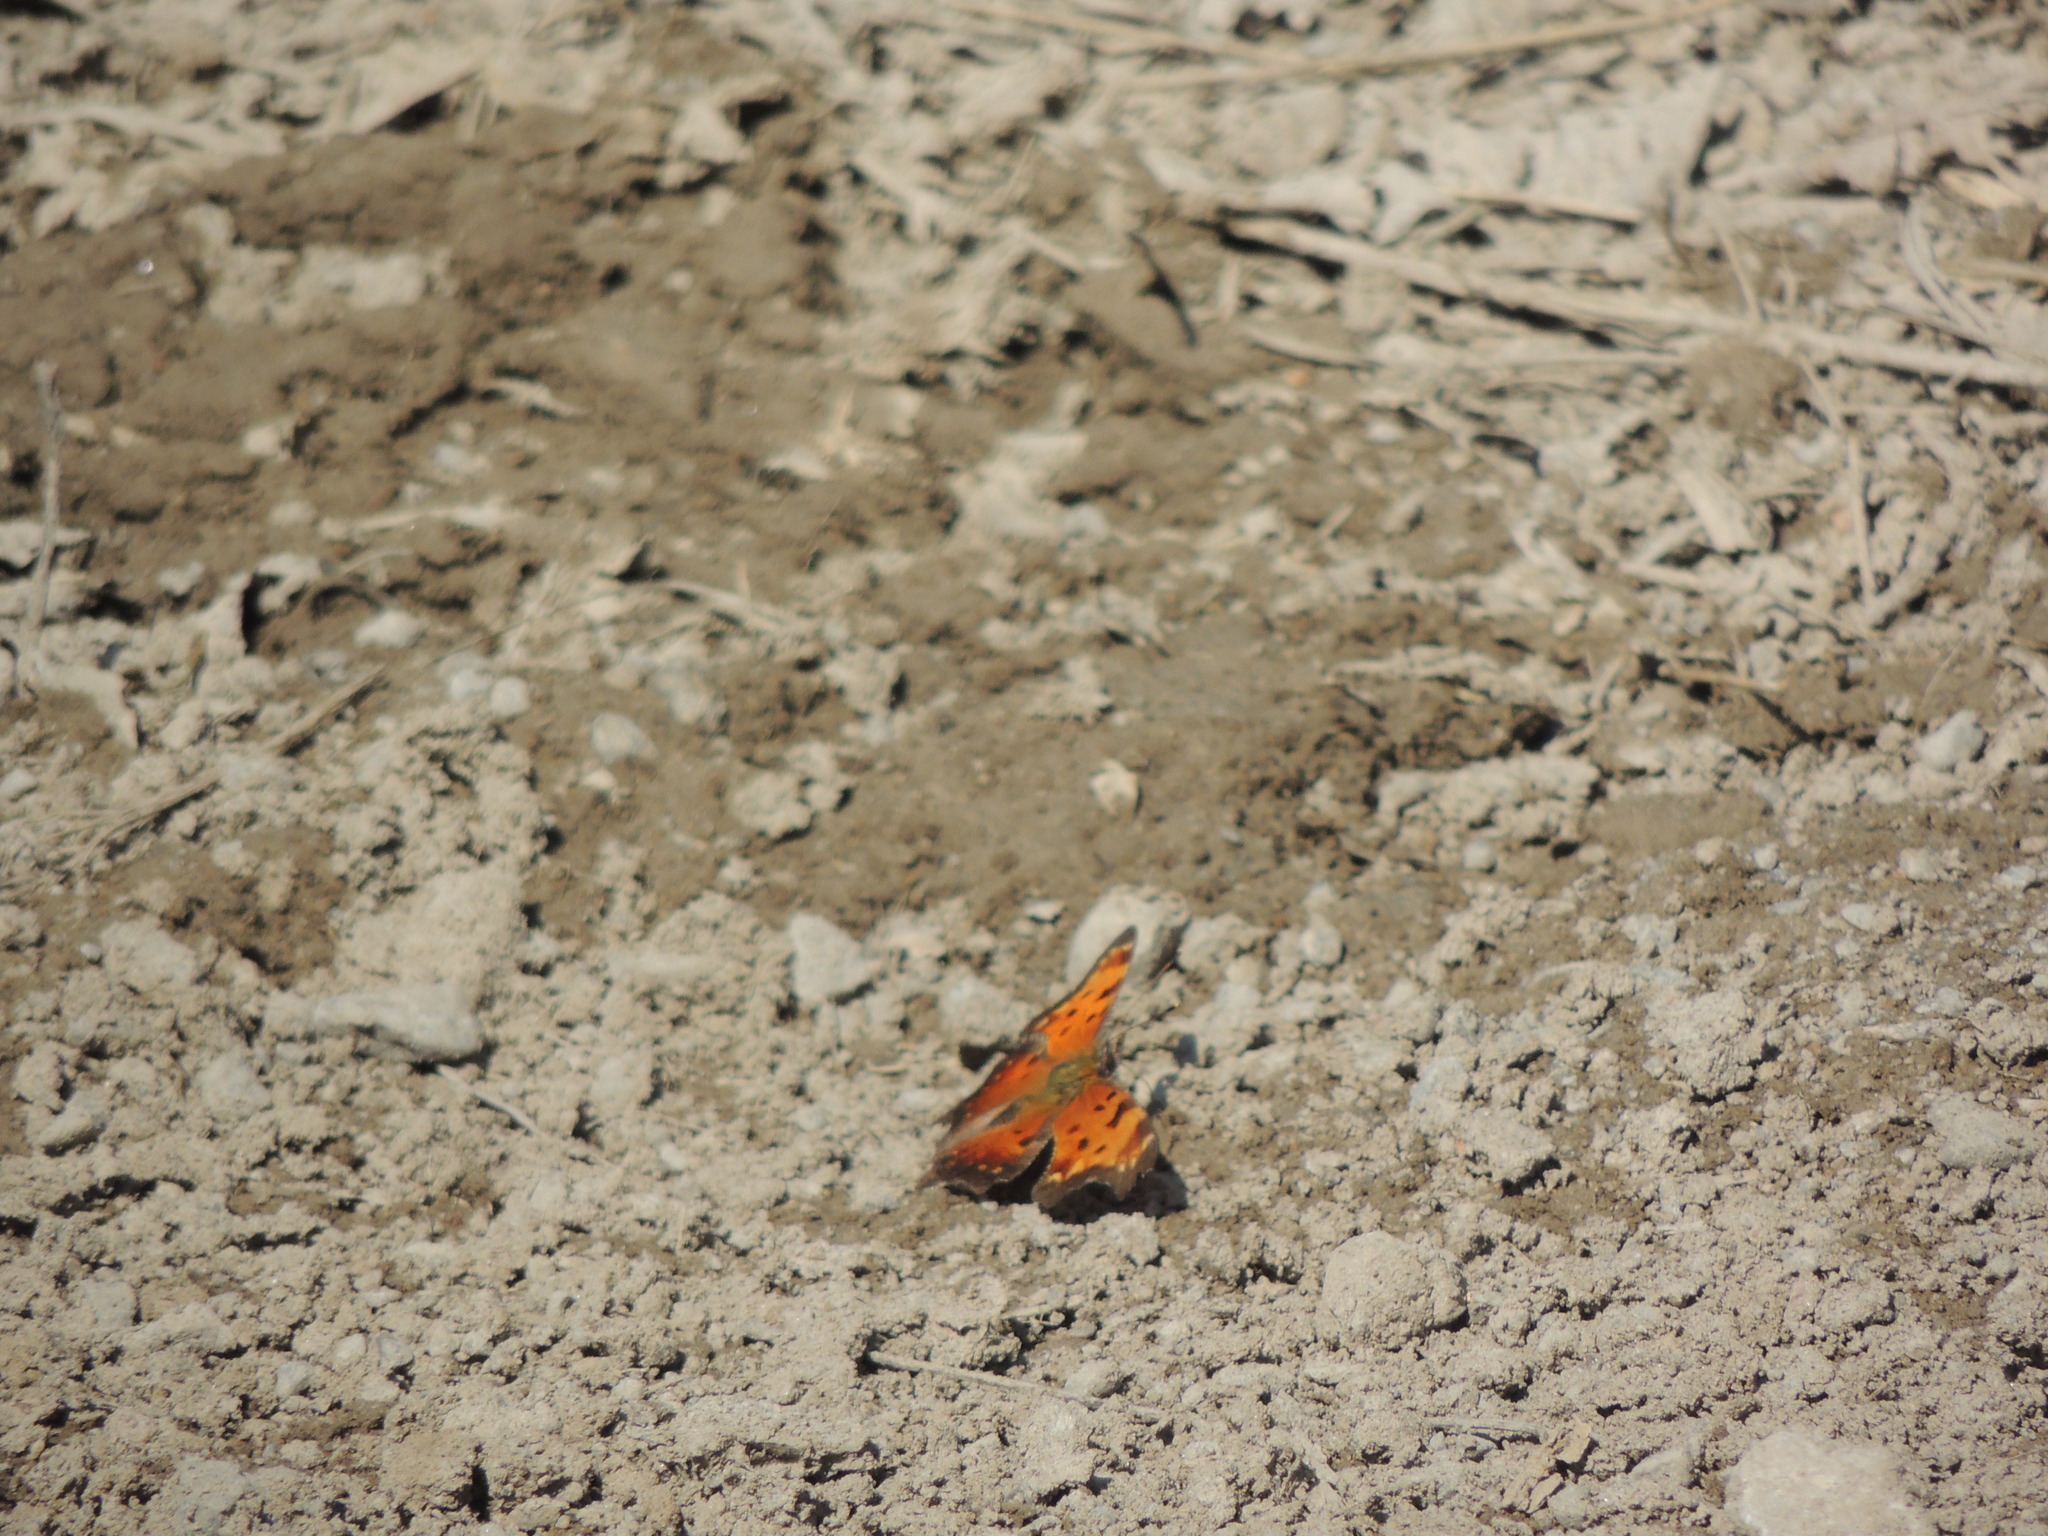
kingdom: Animalia
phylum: Arthropoda
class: Insecta
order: Lepidoptera
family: Nymphalidae
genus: Polygonia
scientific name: Polygonia progne
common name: Gray comma
